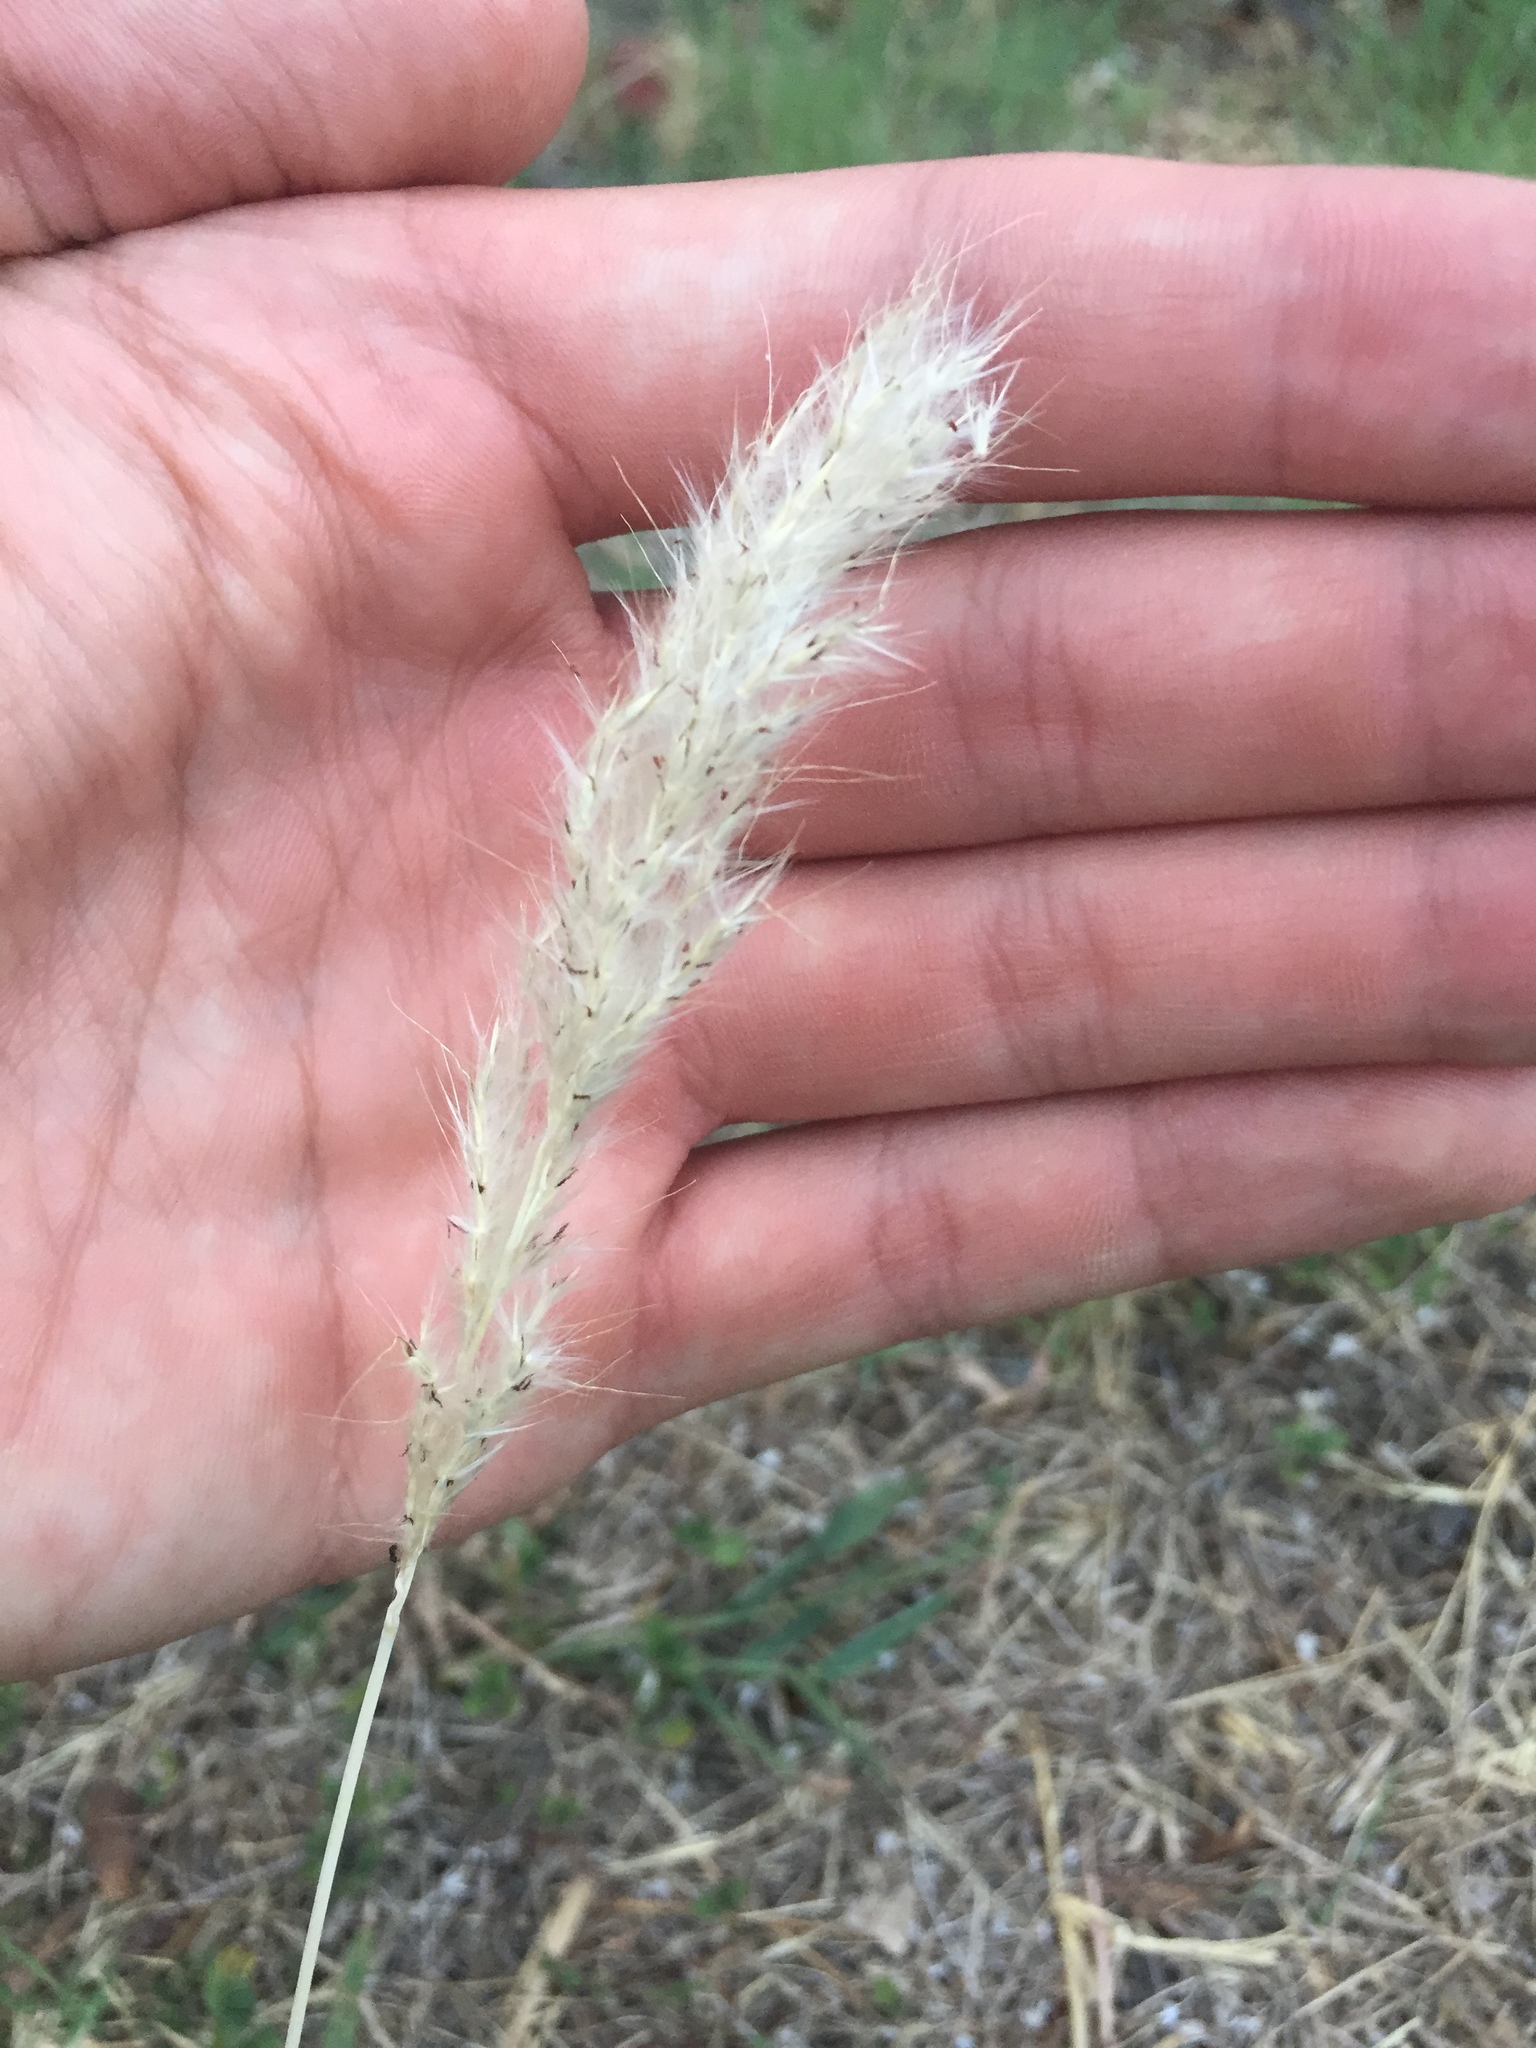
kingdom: Plantae
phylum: Tracheophyta
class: Liliopsida
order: Poales
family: Poaceae
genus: Bothriochloa
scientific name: Bothriochloa torreyana
